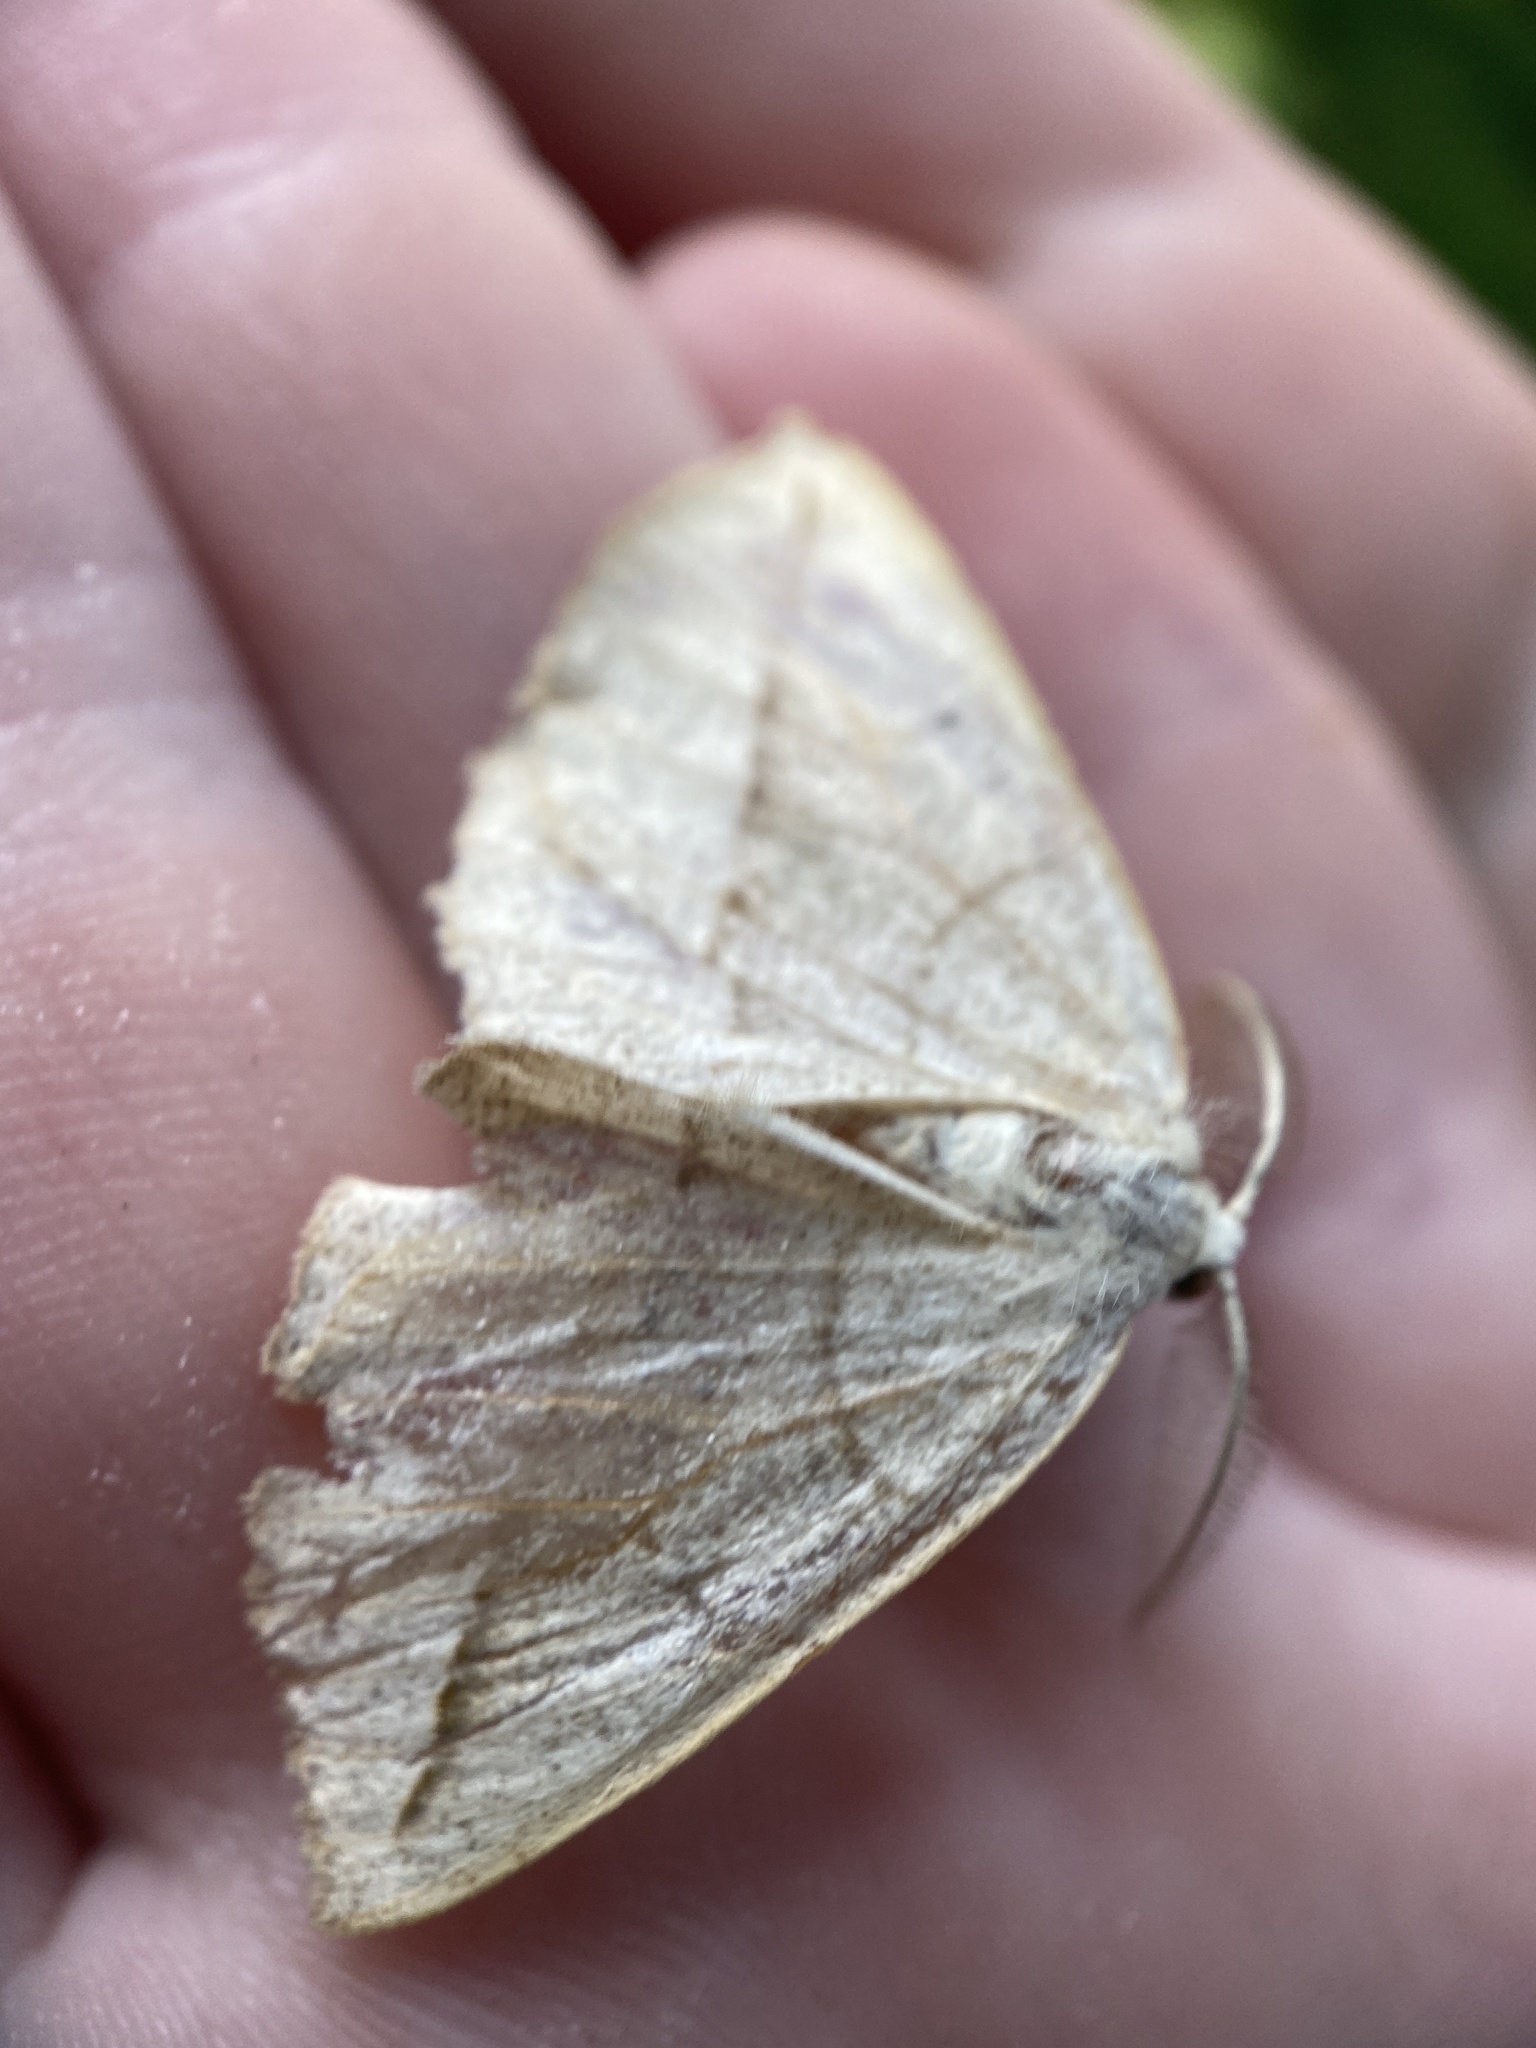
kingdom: Animalia
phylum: Arthropoda
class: Insecta
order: Lepidoptera
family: Geometridae
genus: Eusarca
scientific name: Eusarca confusaria
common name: Confused eusarca
